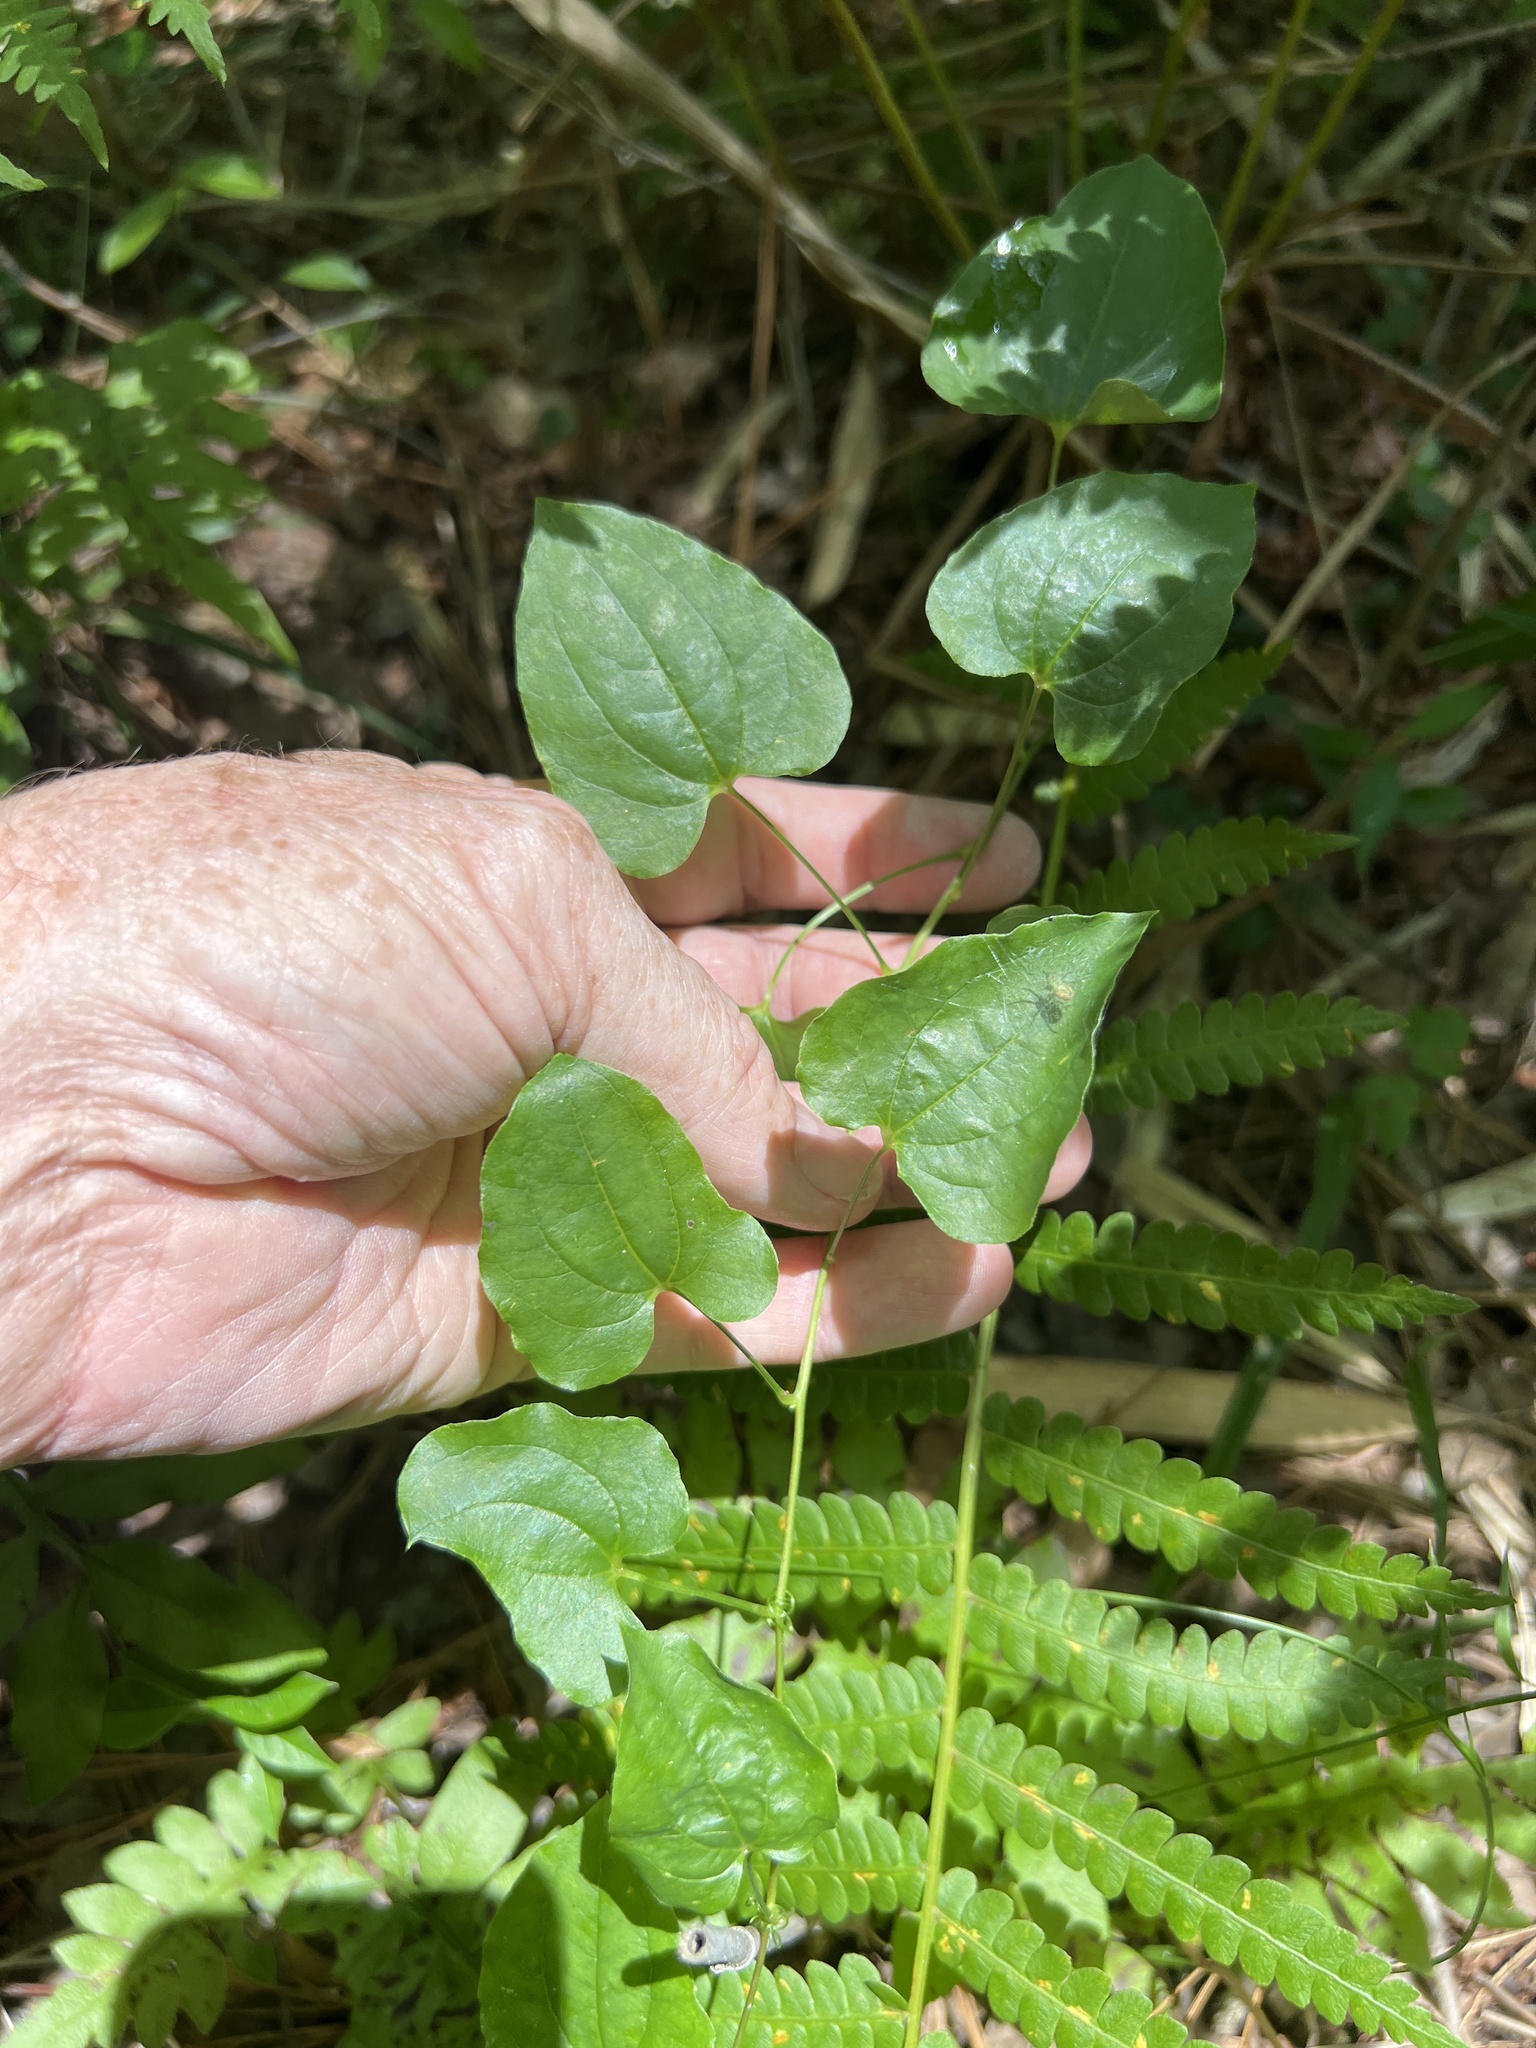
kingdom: Plantae
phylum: Tracheophyta
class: Liliopsida
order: Liliales
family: Smilacaceae
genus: Smilax
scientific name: Smilax pseudochina
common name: False chinaroot
